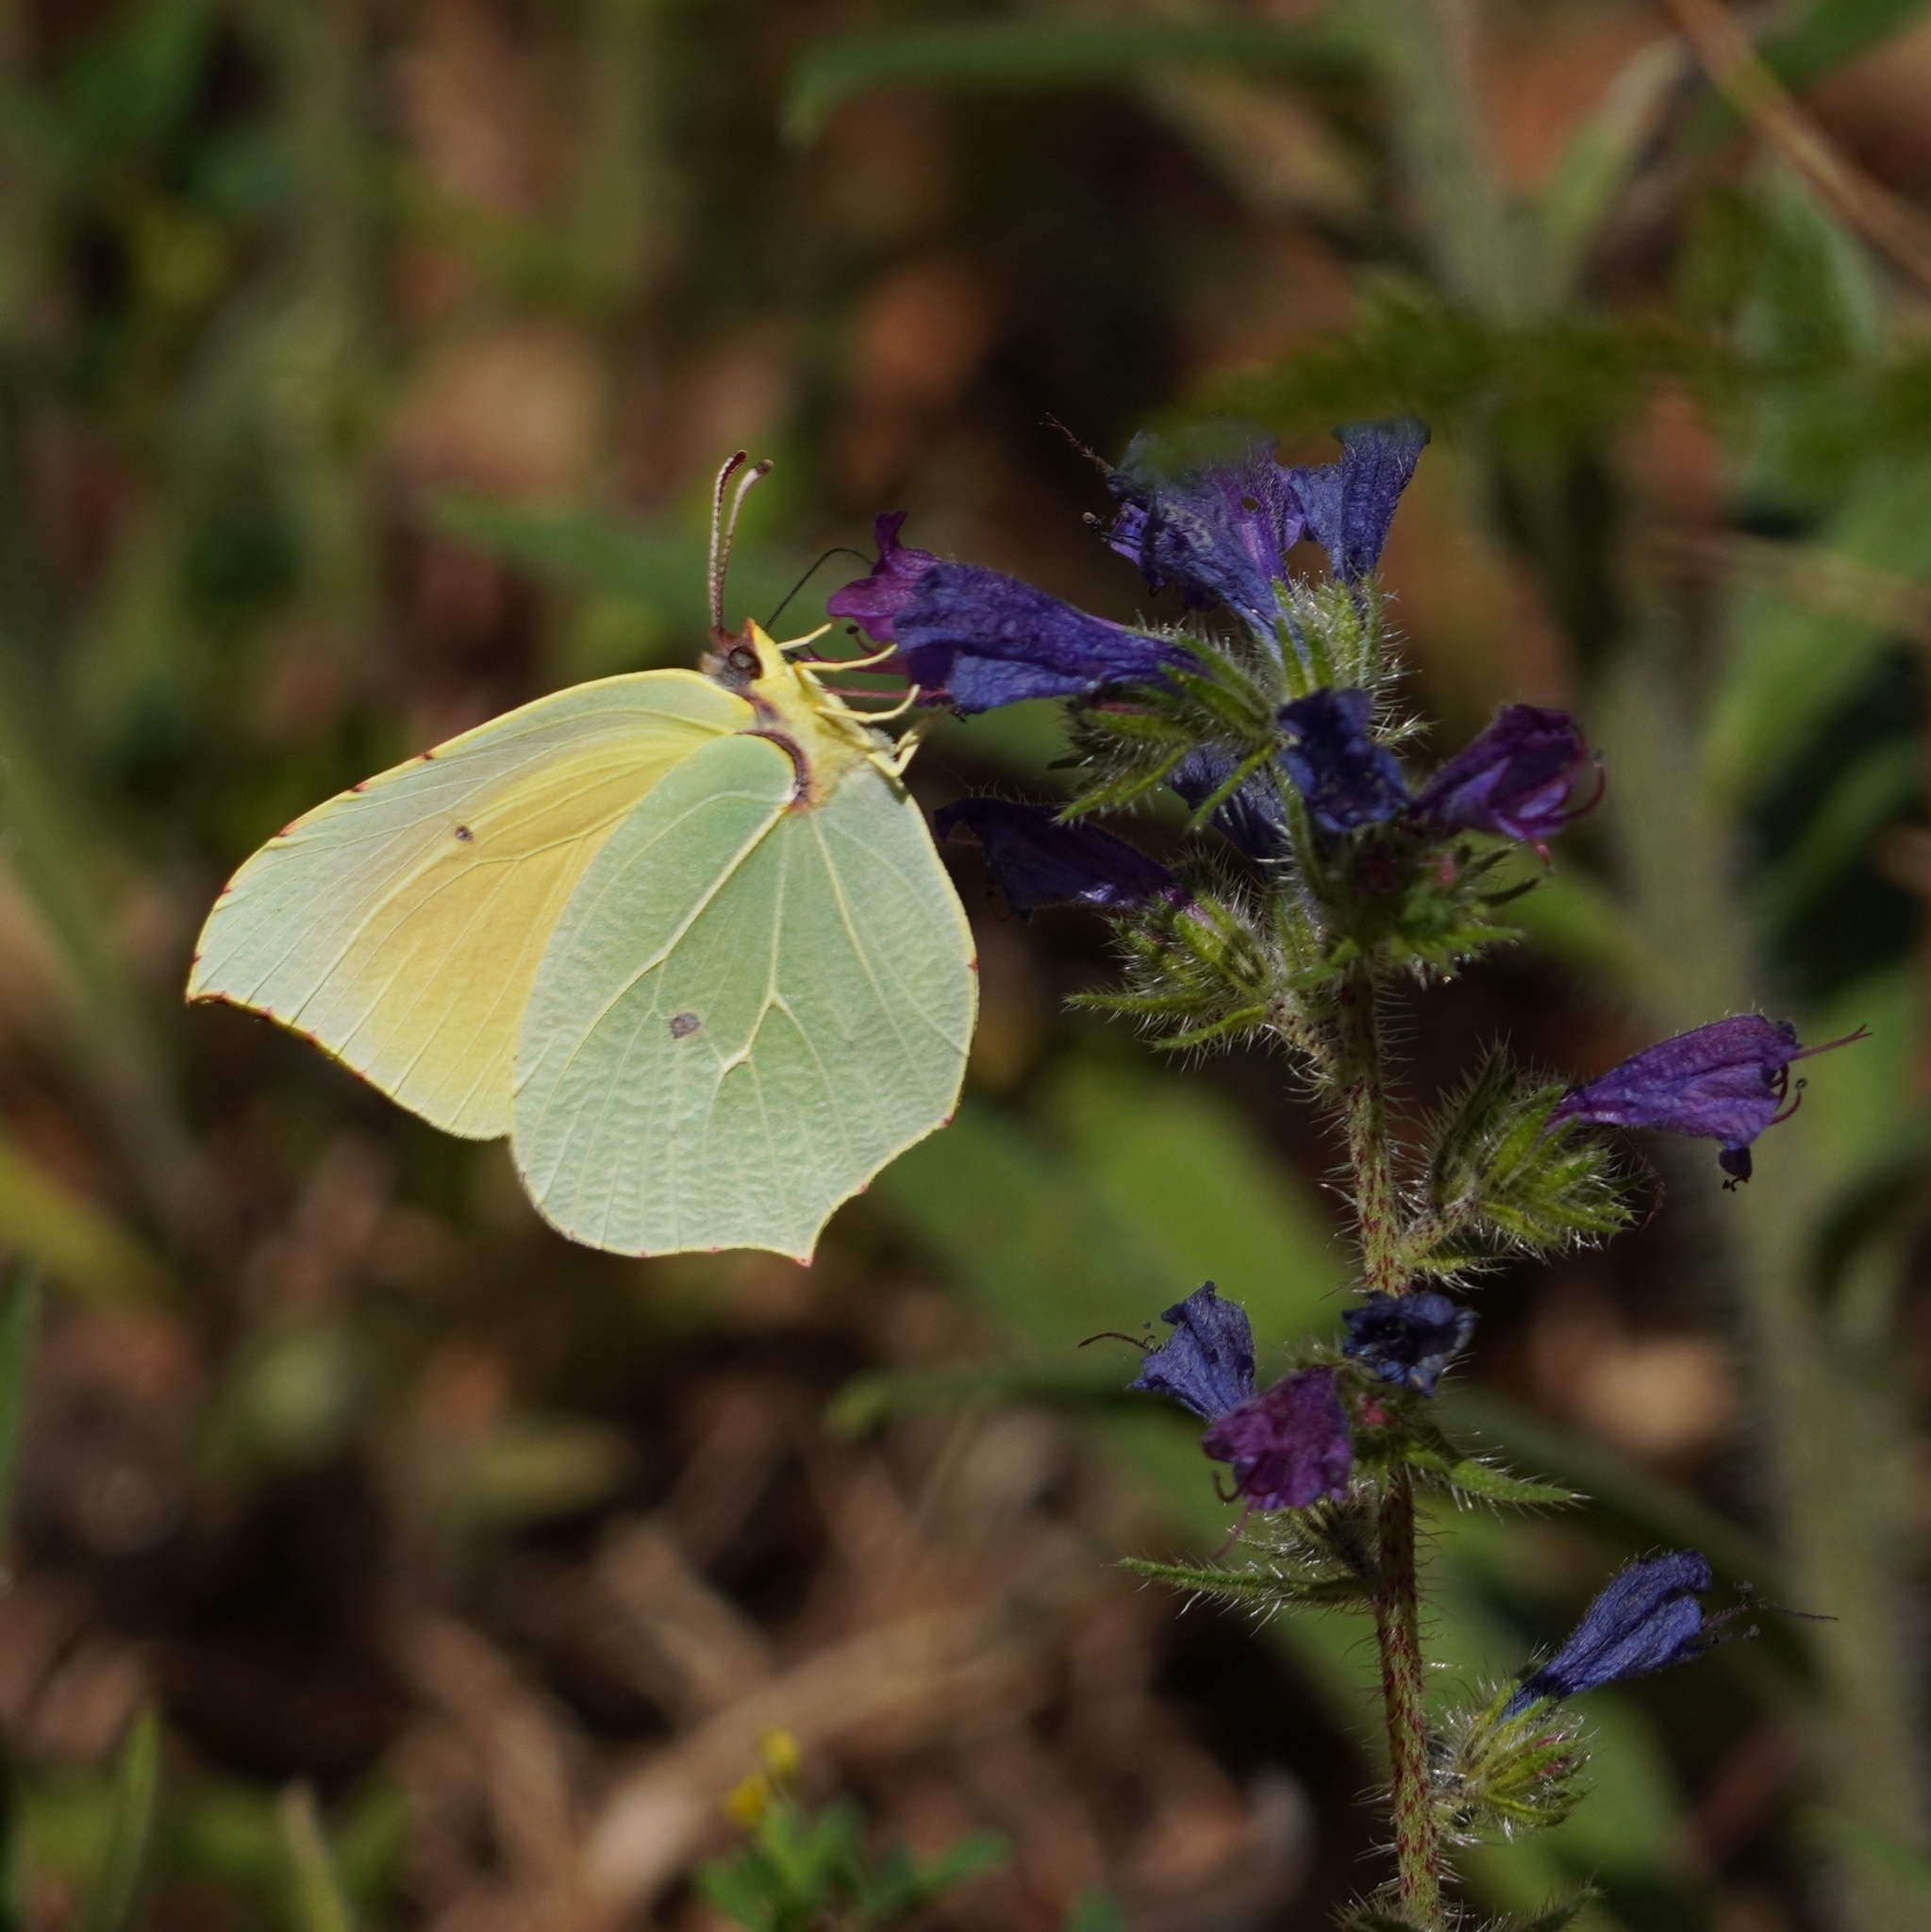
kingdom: Animalia
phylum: Arthropoda
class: Insecta
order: Lepidoptera
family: Pieridae
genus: Gonepteryx
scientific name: Gonepteryx cleopatra
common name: Cleopatra
